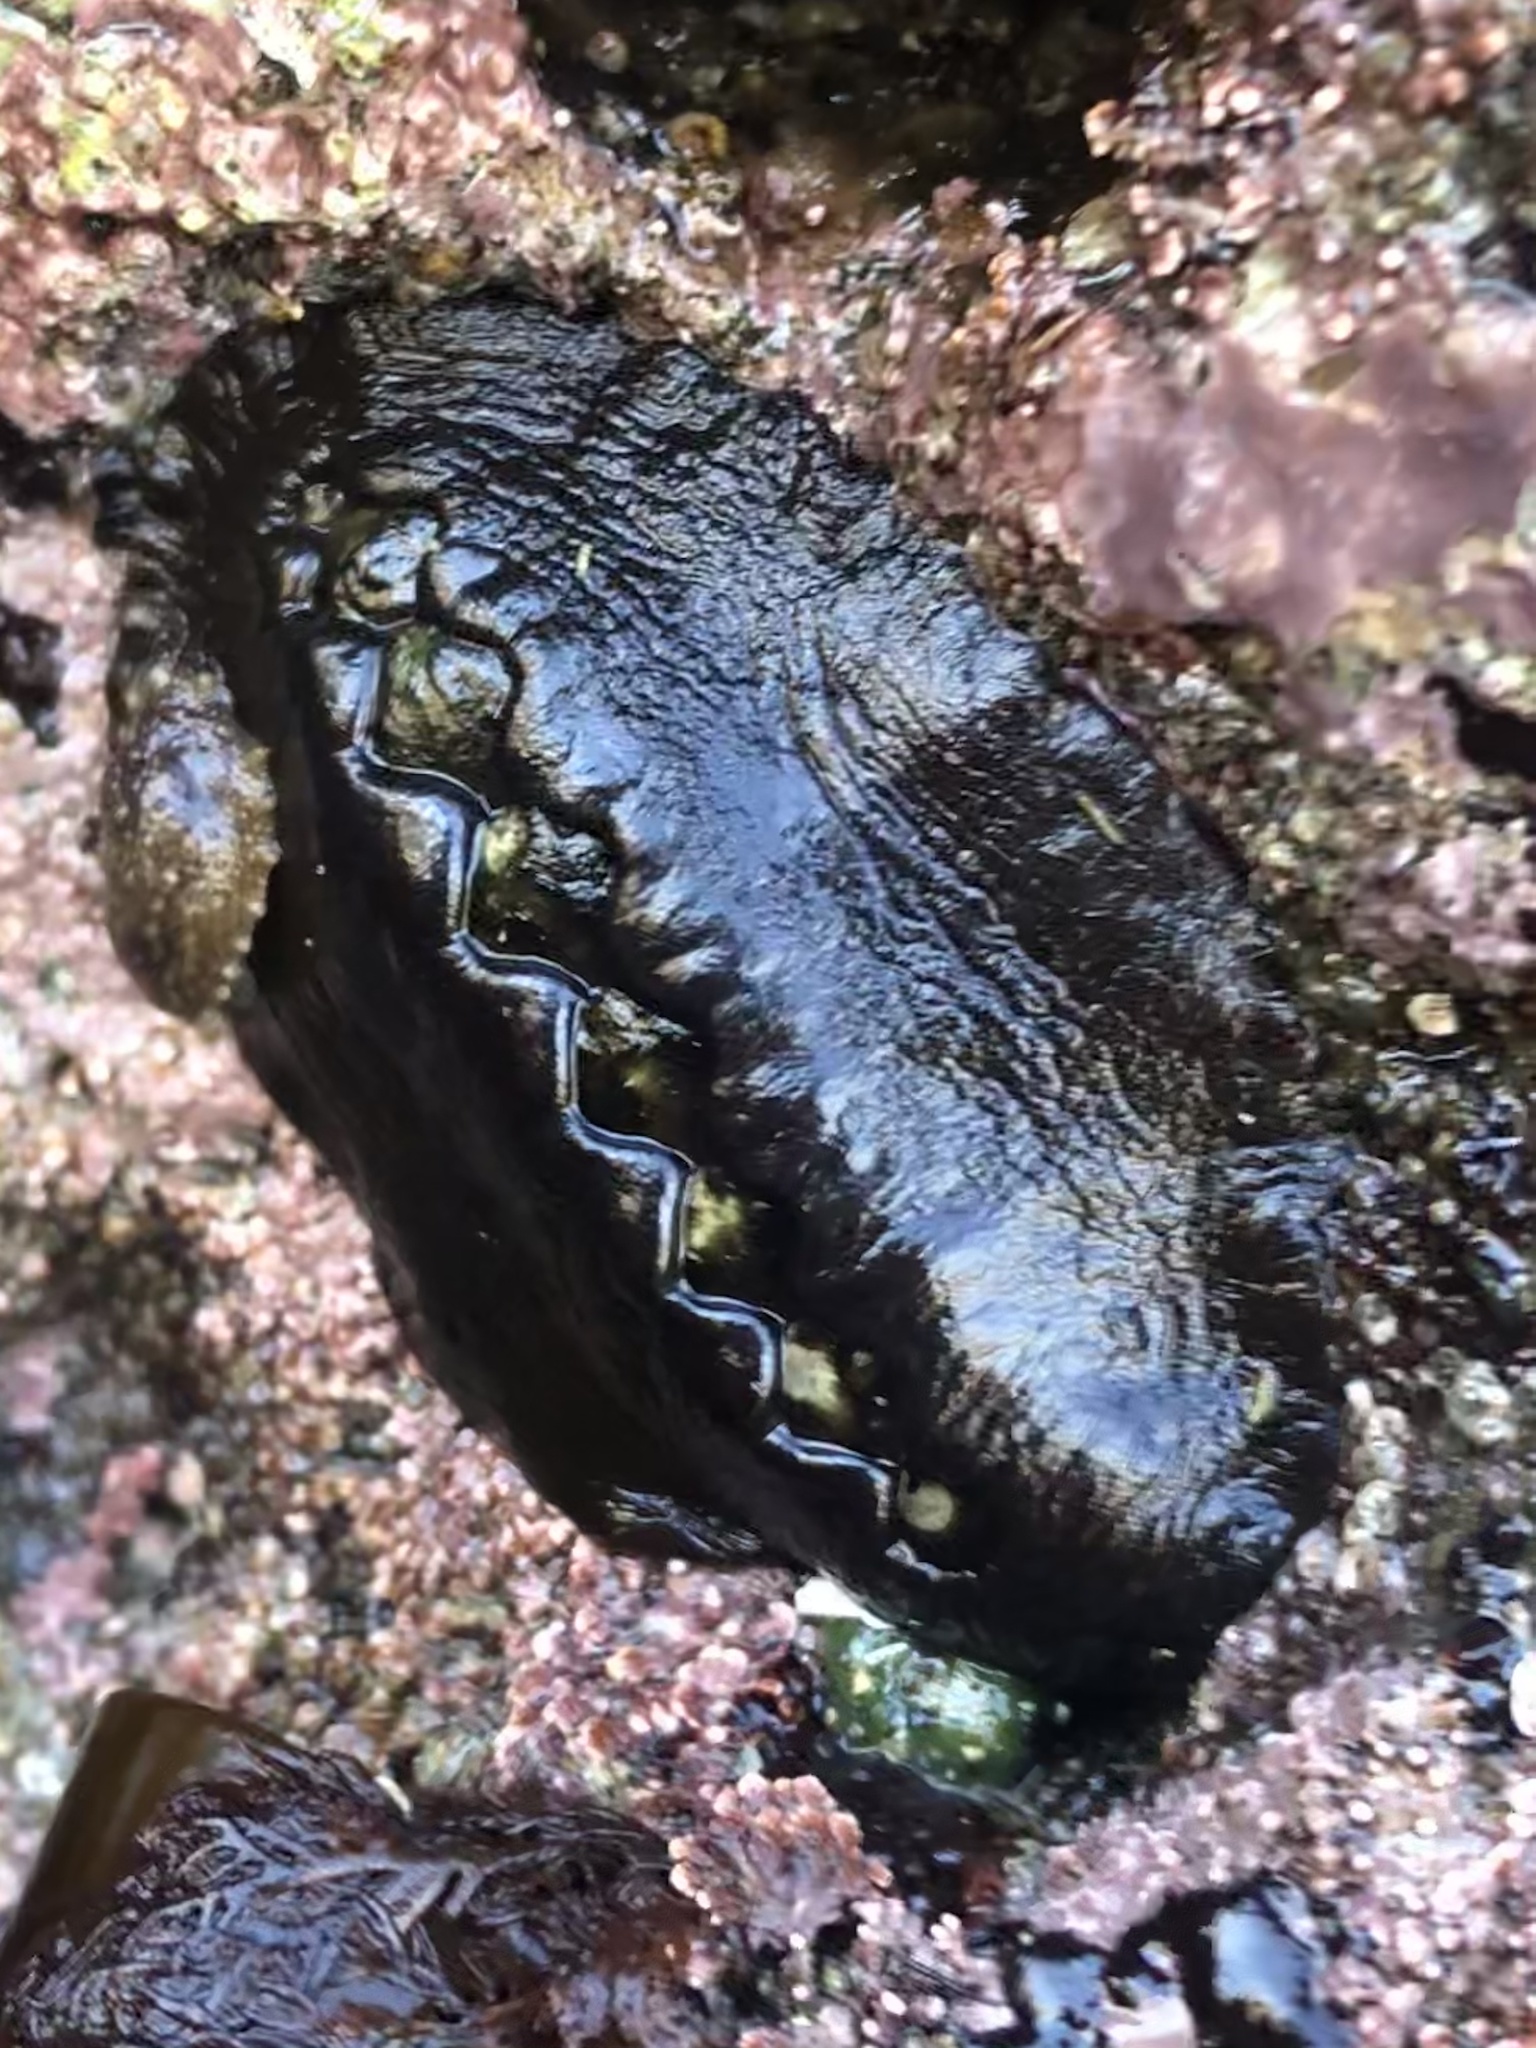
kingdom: Animalia
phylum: Mollusca
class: Polyplacophora
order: Chitonida
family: Mopaliidae
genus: Katharina
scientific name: Katharina tunicata
